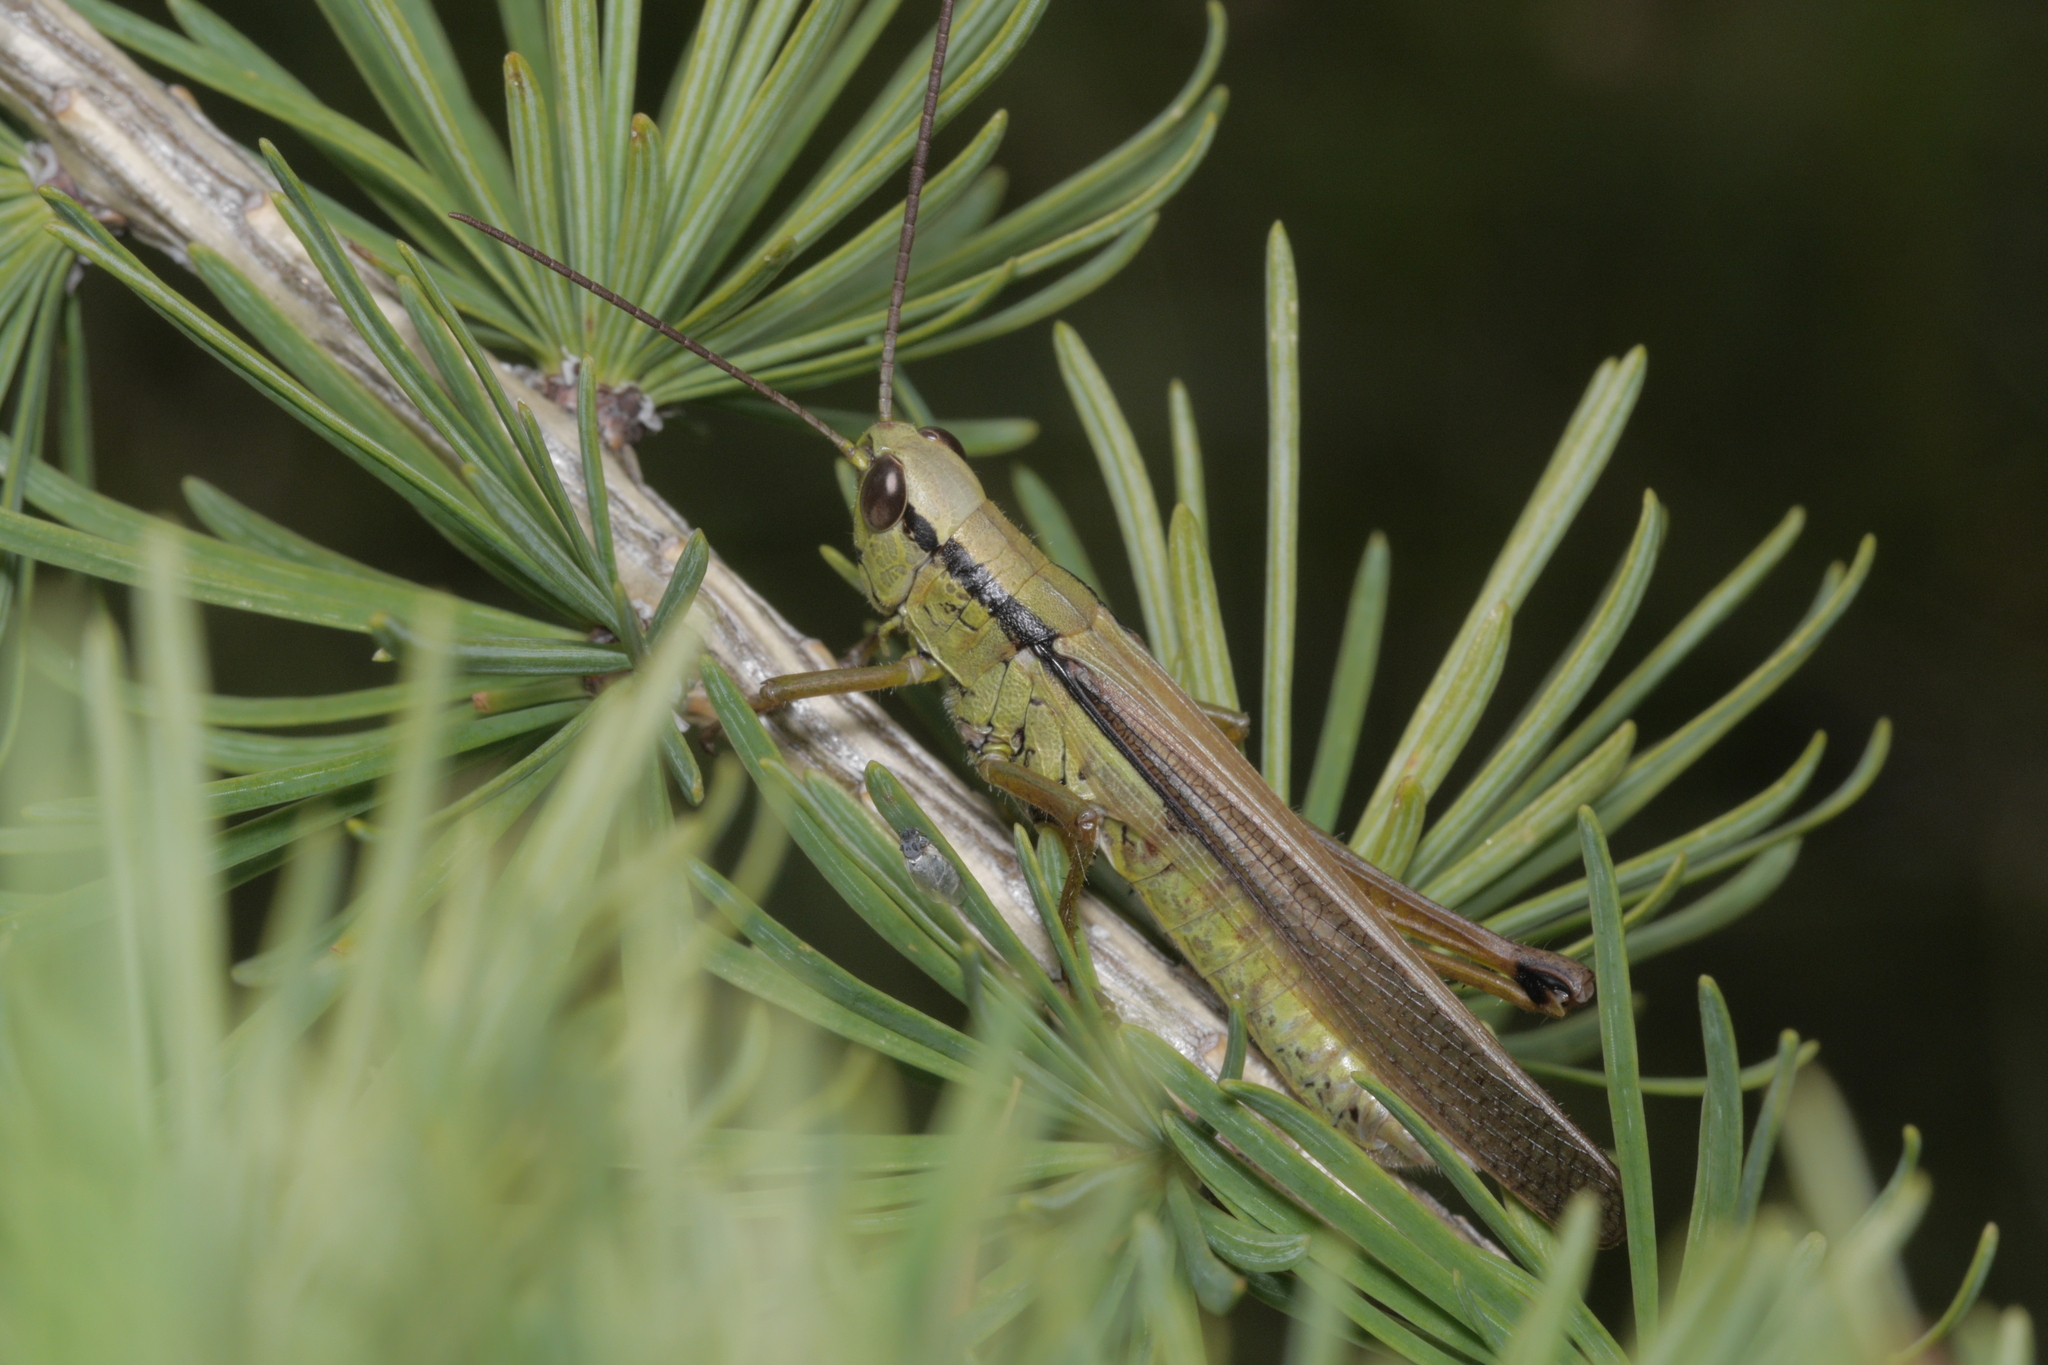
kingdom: Animalia
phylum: Arthropoda
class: Insecta
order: Orthoptera
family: Acrididae
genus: Mecostethus
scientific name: Mecostethus parapleurus
